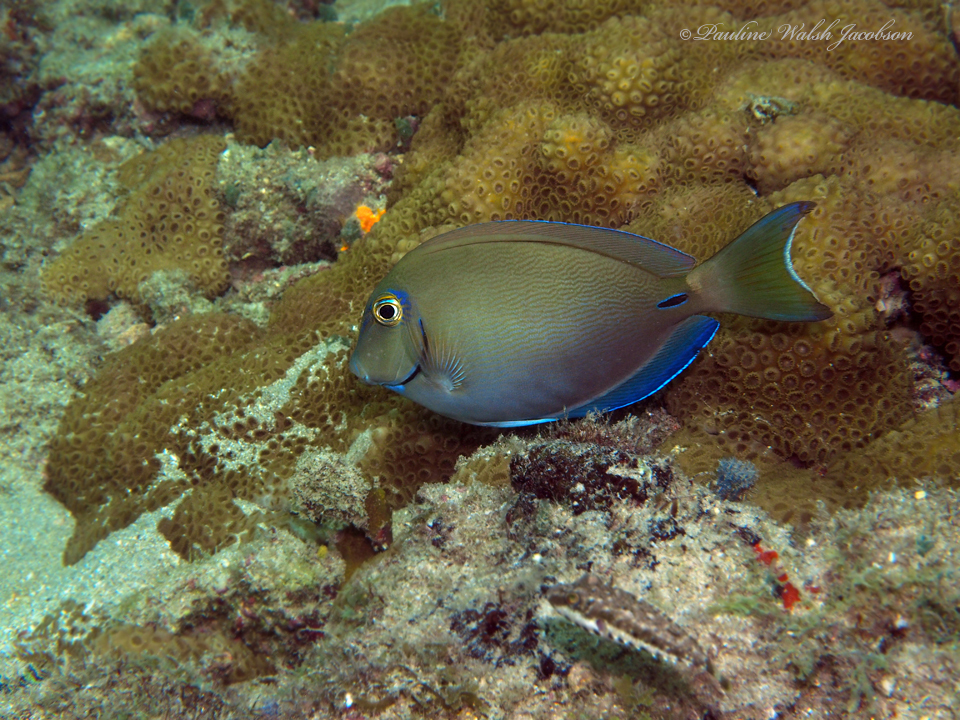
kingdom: Animalia
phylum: Chordata
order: Perciformes
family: Acanthuridae
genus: Acanthurus
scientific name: Acanthurus bahianus
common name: Ocean surgeon
